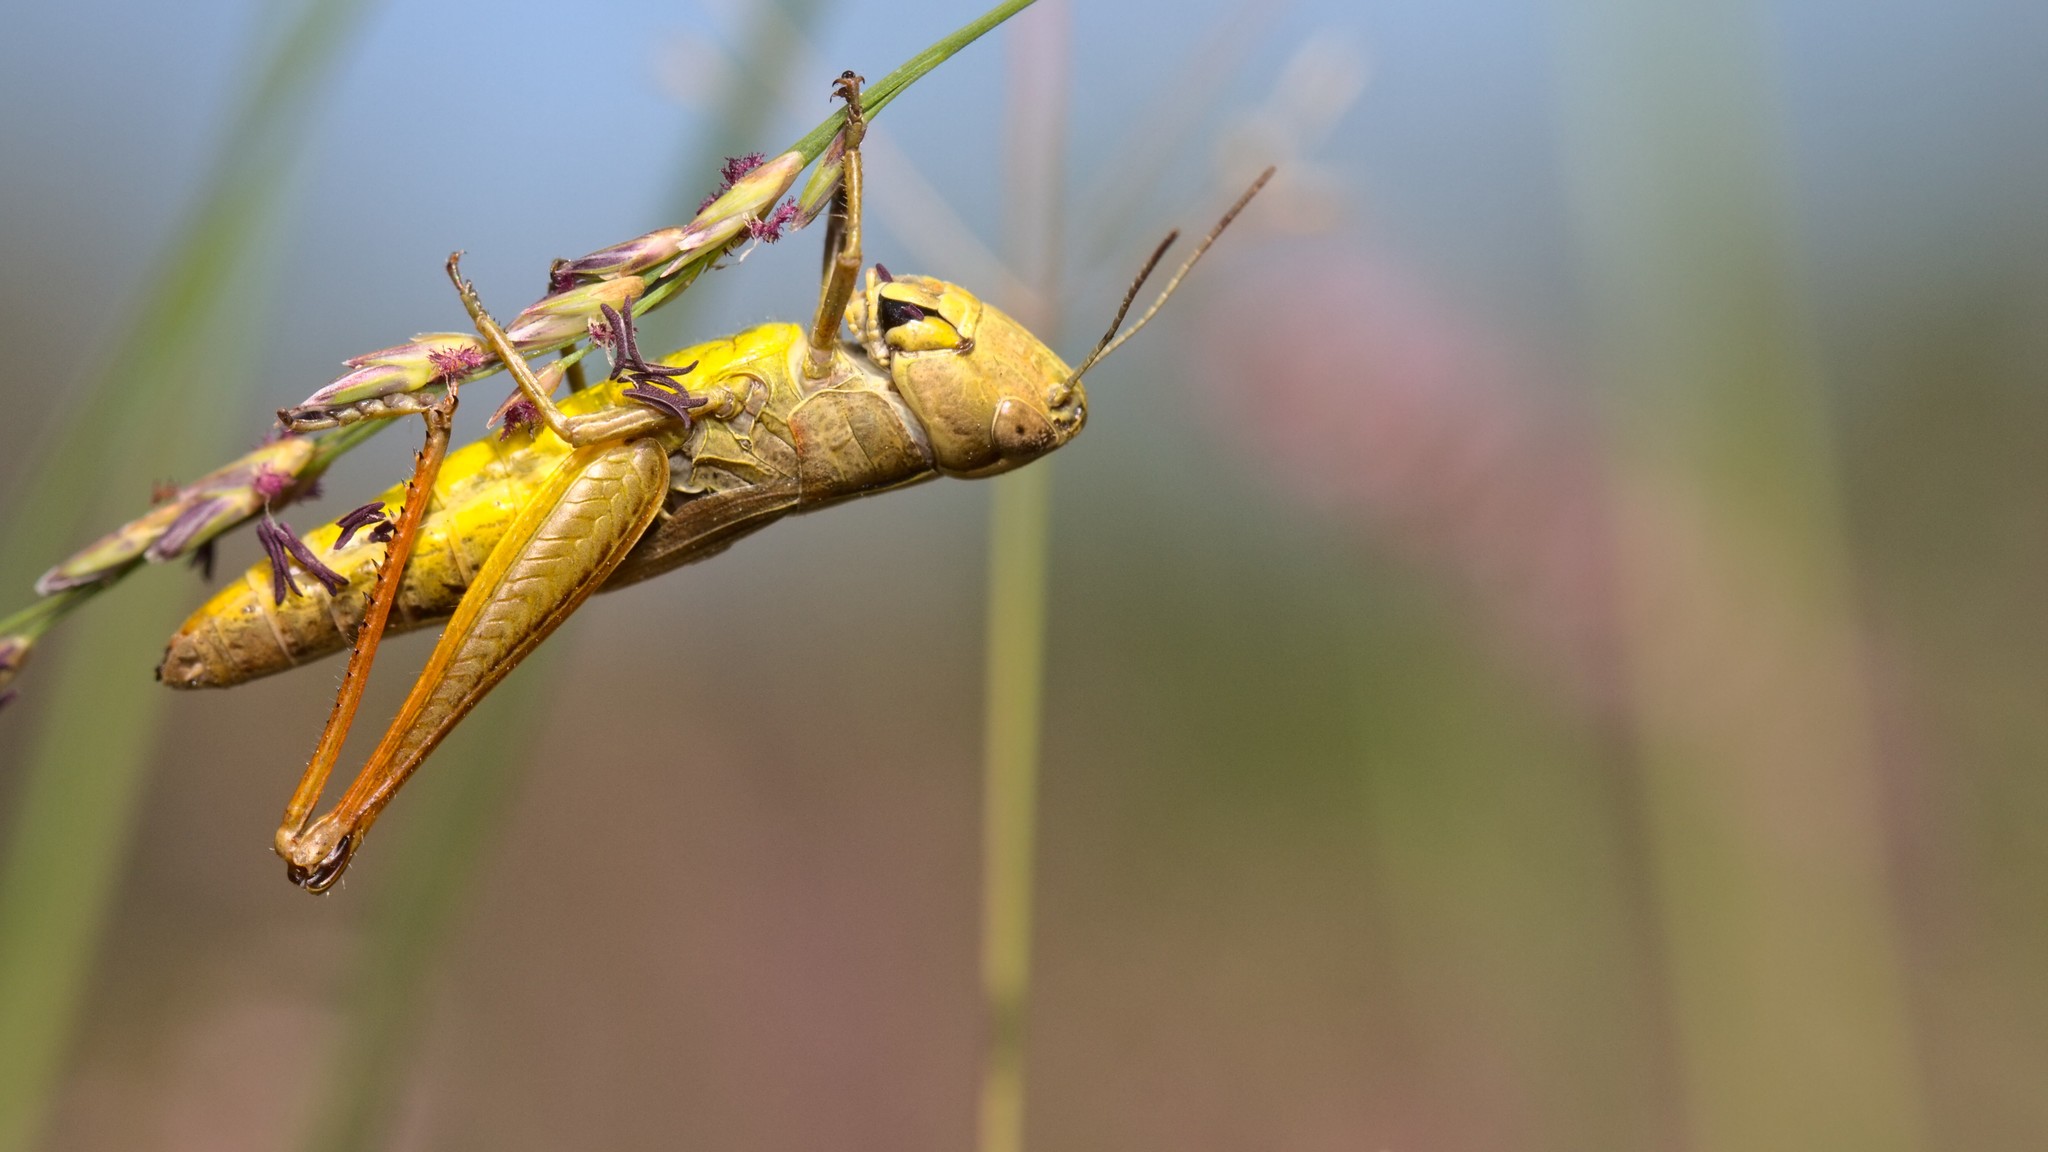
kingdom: Animalia
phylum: Arthropoda
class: Insecta
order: Orthoptera
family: Acrididae
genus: Pseudochorthippus
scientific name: Pseudochorthippus parallelus
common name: Meadow grasshopper
